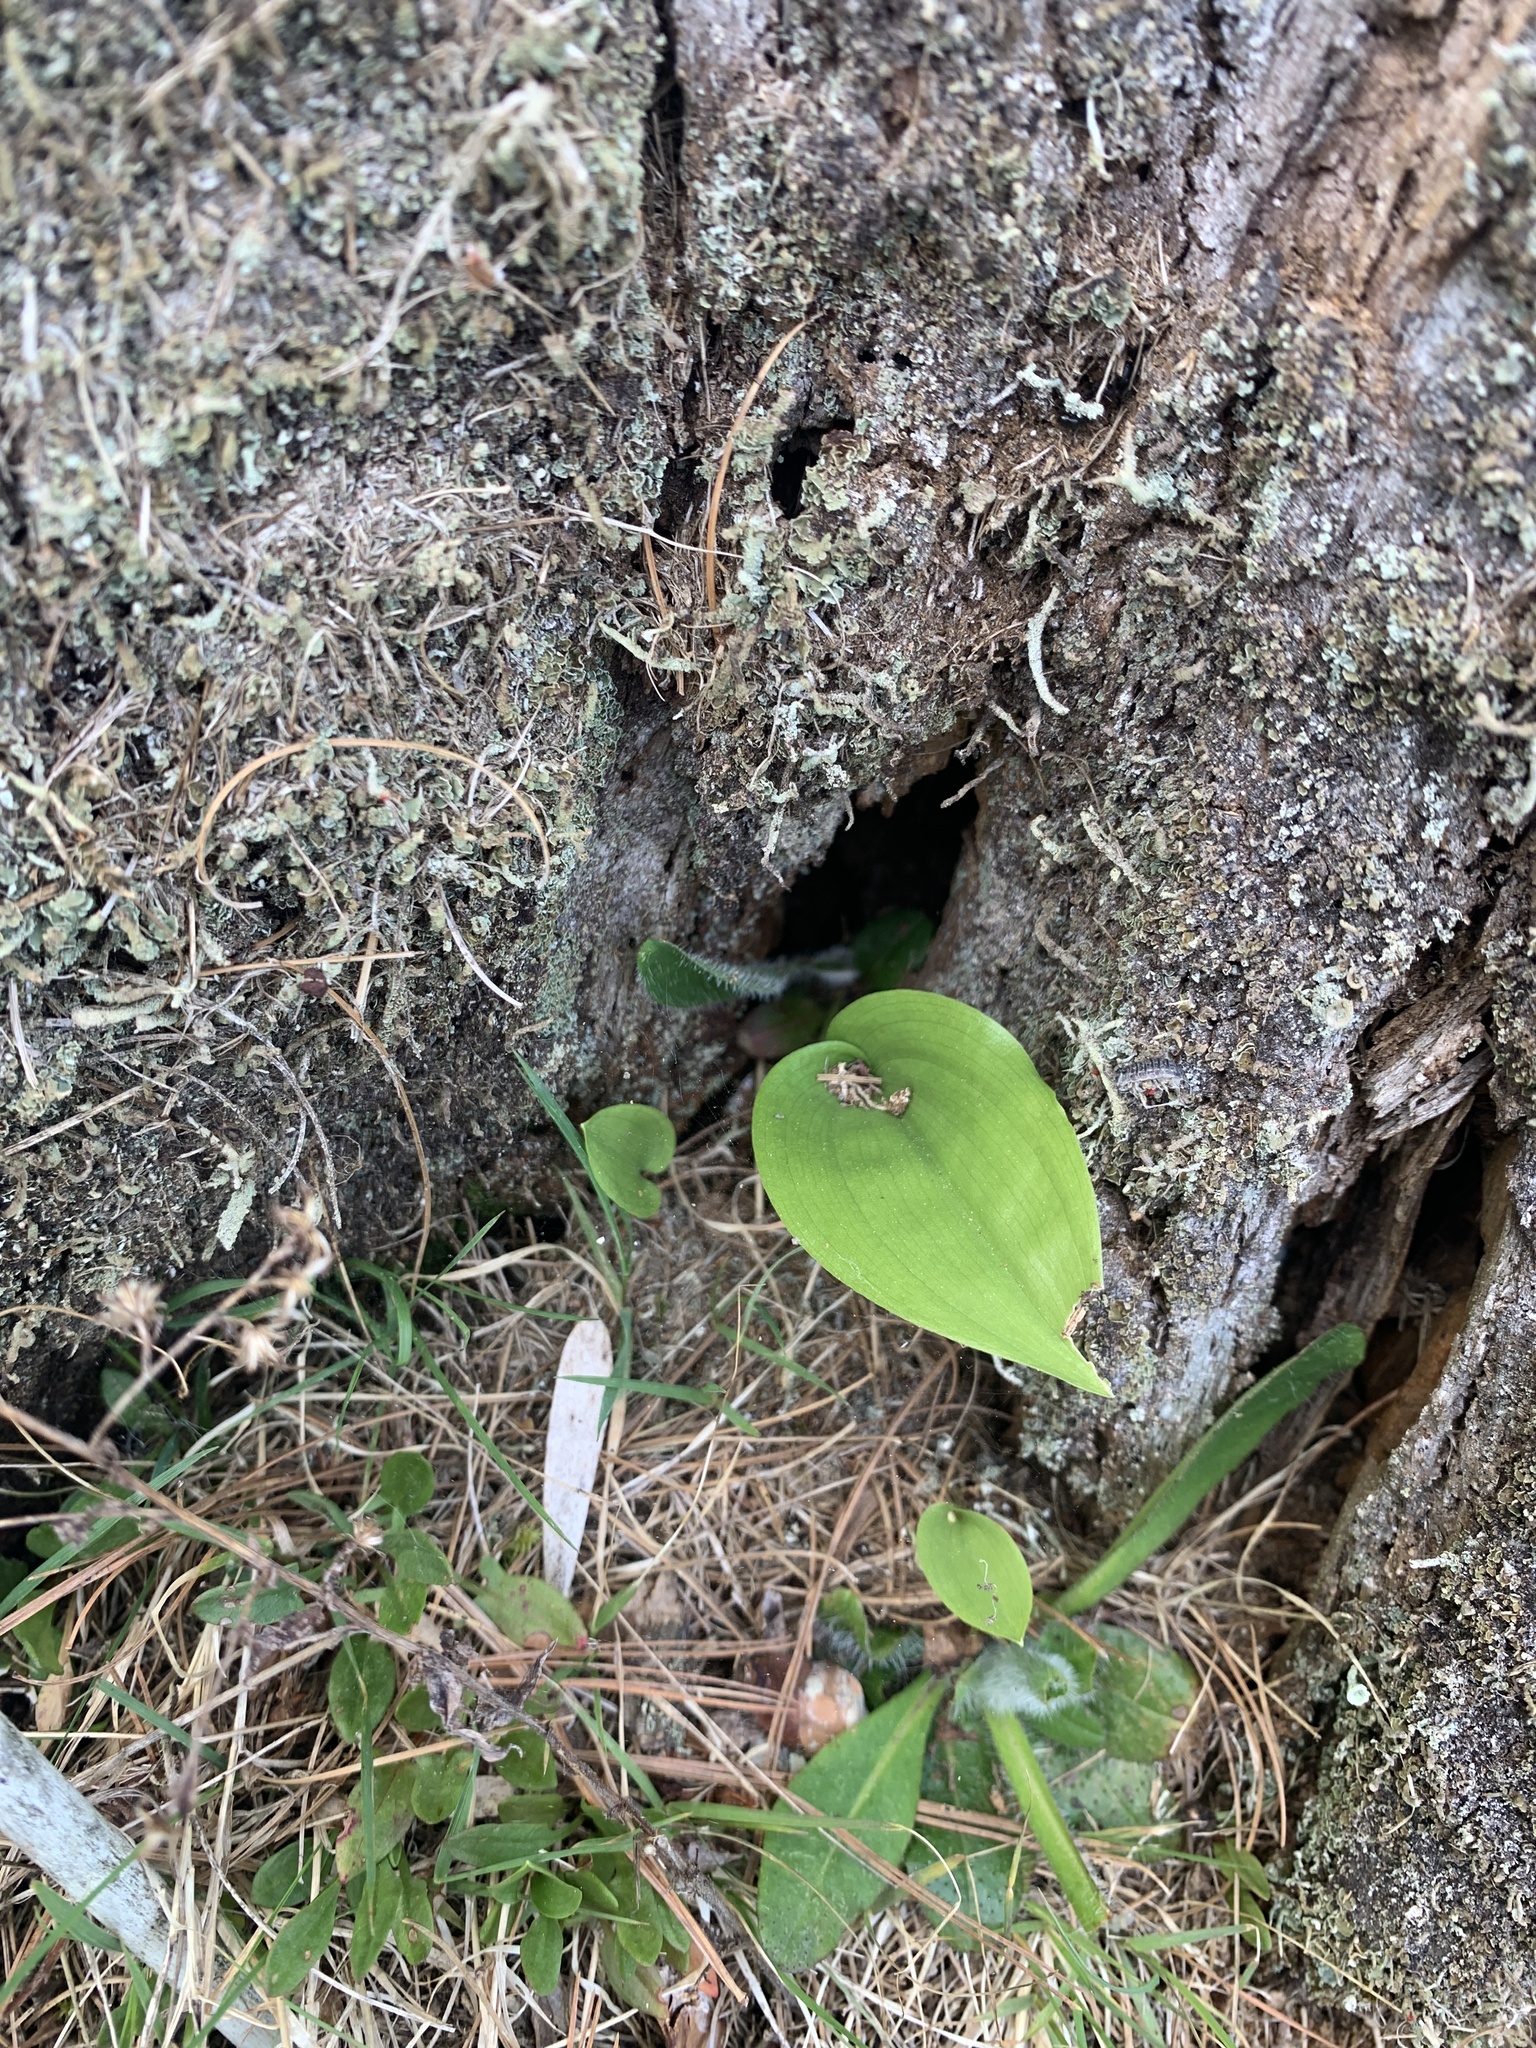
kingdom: Plantae
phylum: Tracheophyta
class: Liliopsida
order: Asparagales
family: Asparagaceae
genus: Maianthemum
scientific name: Maianthemum canadense
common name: False lily-of-the-valley
